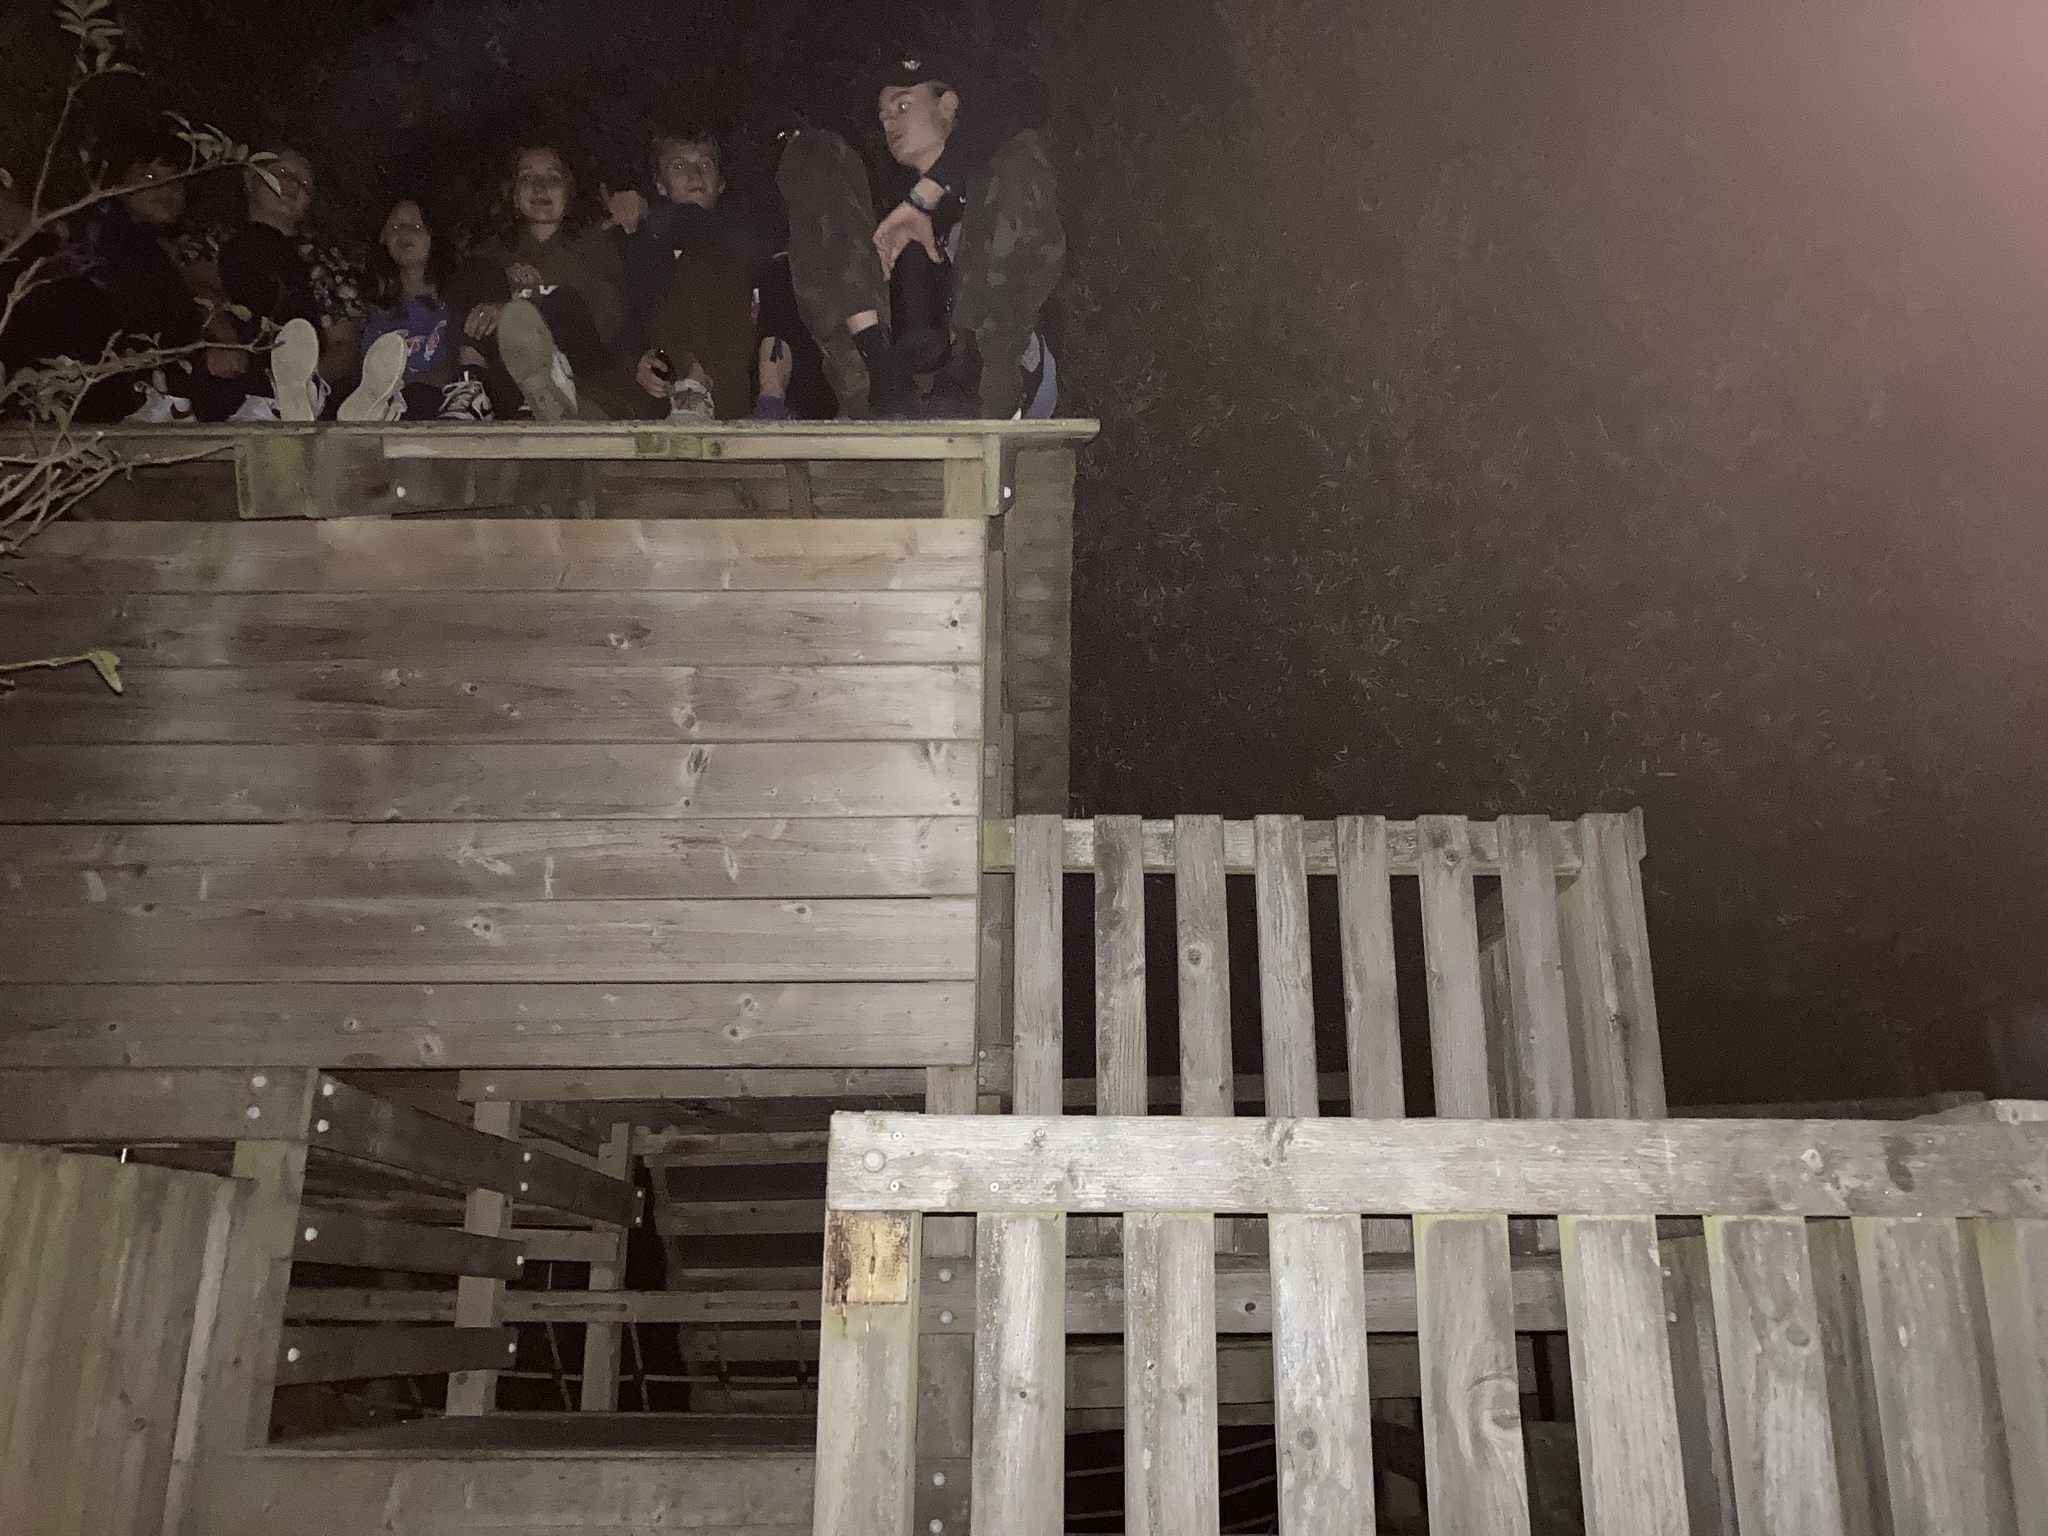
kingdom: Animalia
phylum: Arthropoda
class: Insecta
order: Hymenoptera
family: Vespidae
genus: Vespa
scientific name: Vespa velutina
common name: Asian hornet
